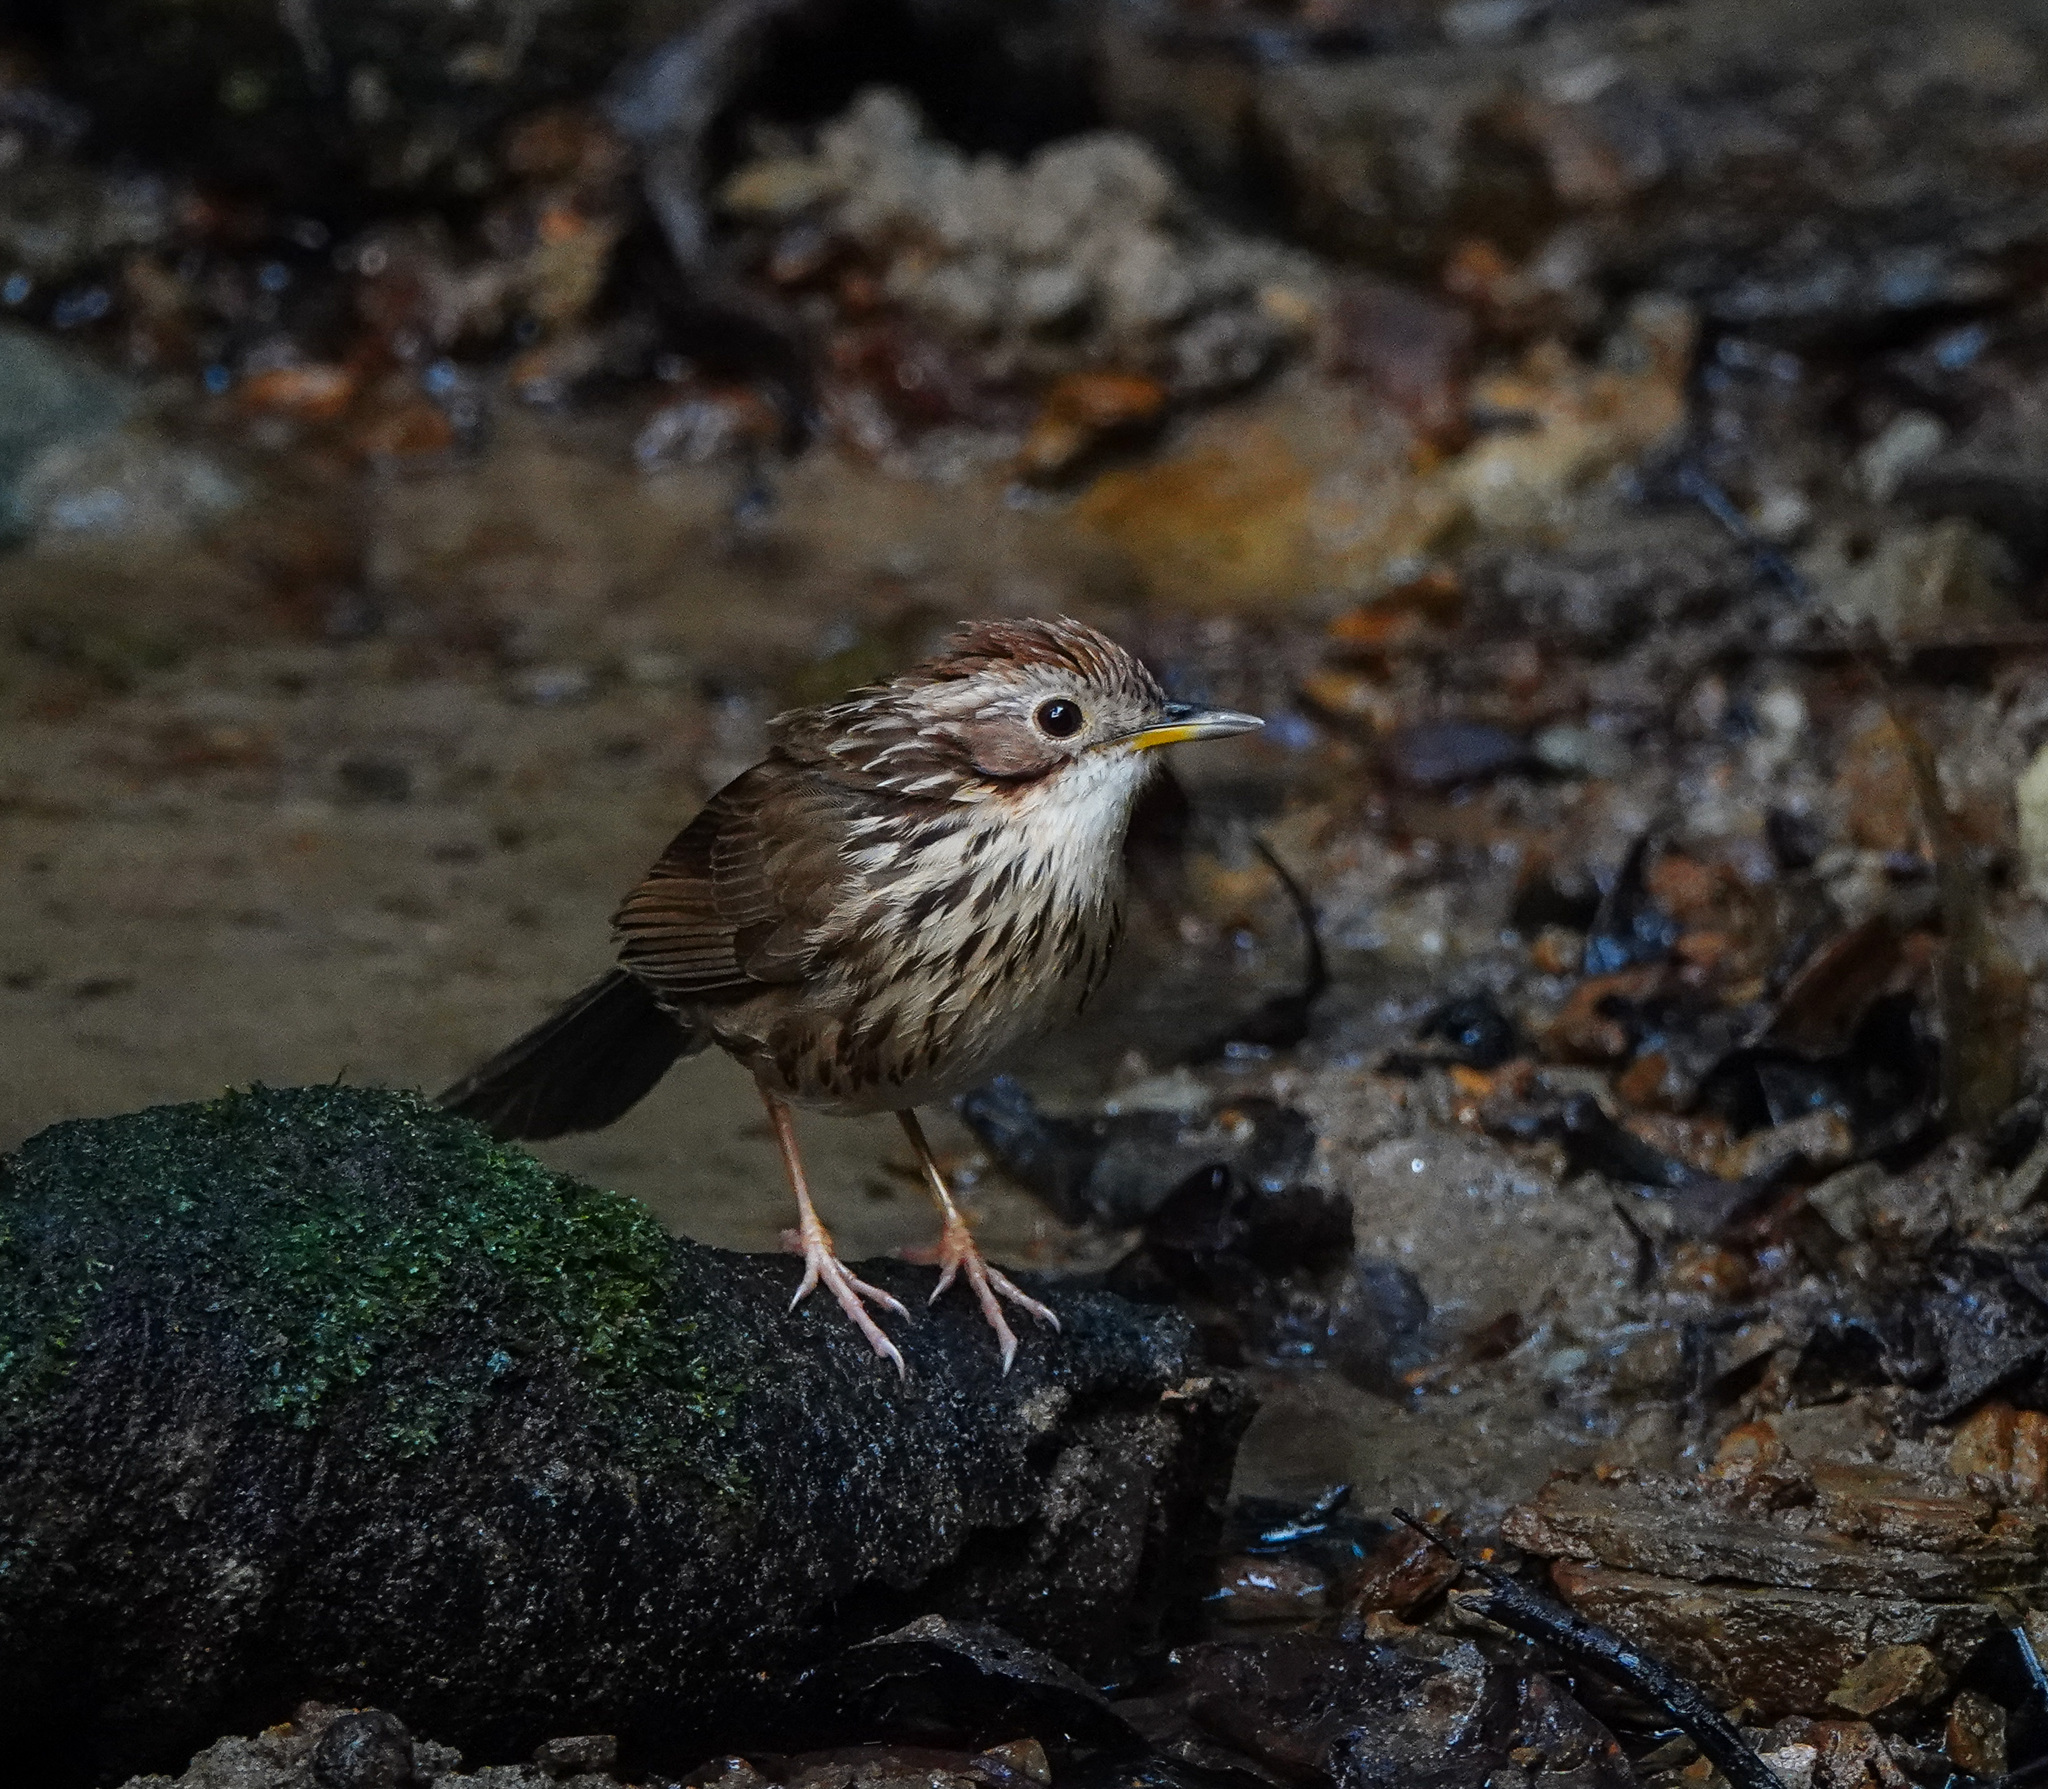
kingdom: Animalia
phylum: Chordata
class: Aves
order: Passeriformes
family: Pellorneidae
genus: Pellorneum
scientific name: Pellorneum ruficeps
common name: Puff-throated babbler
